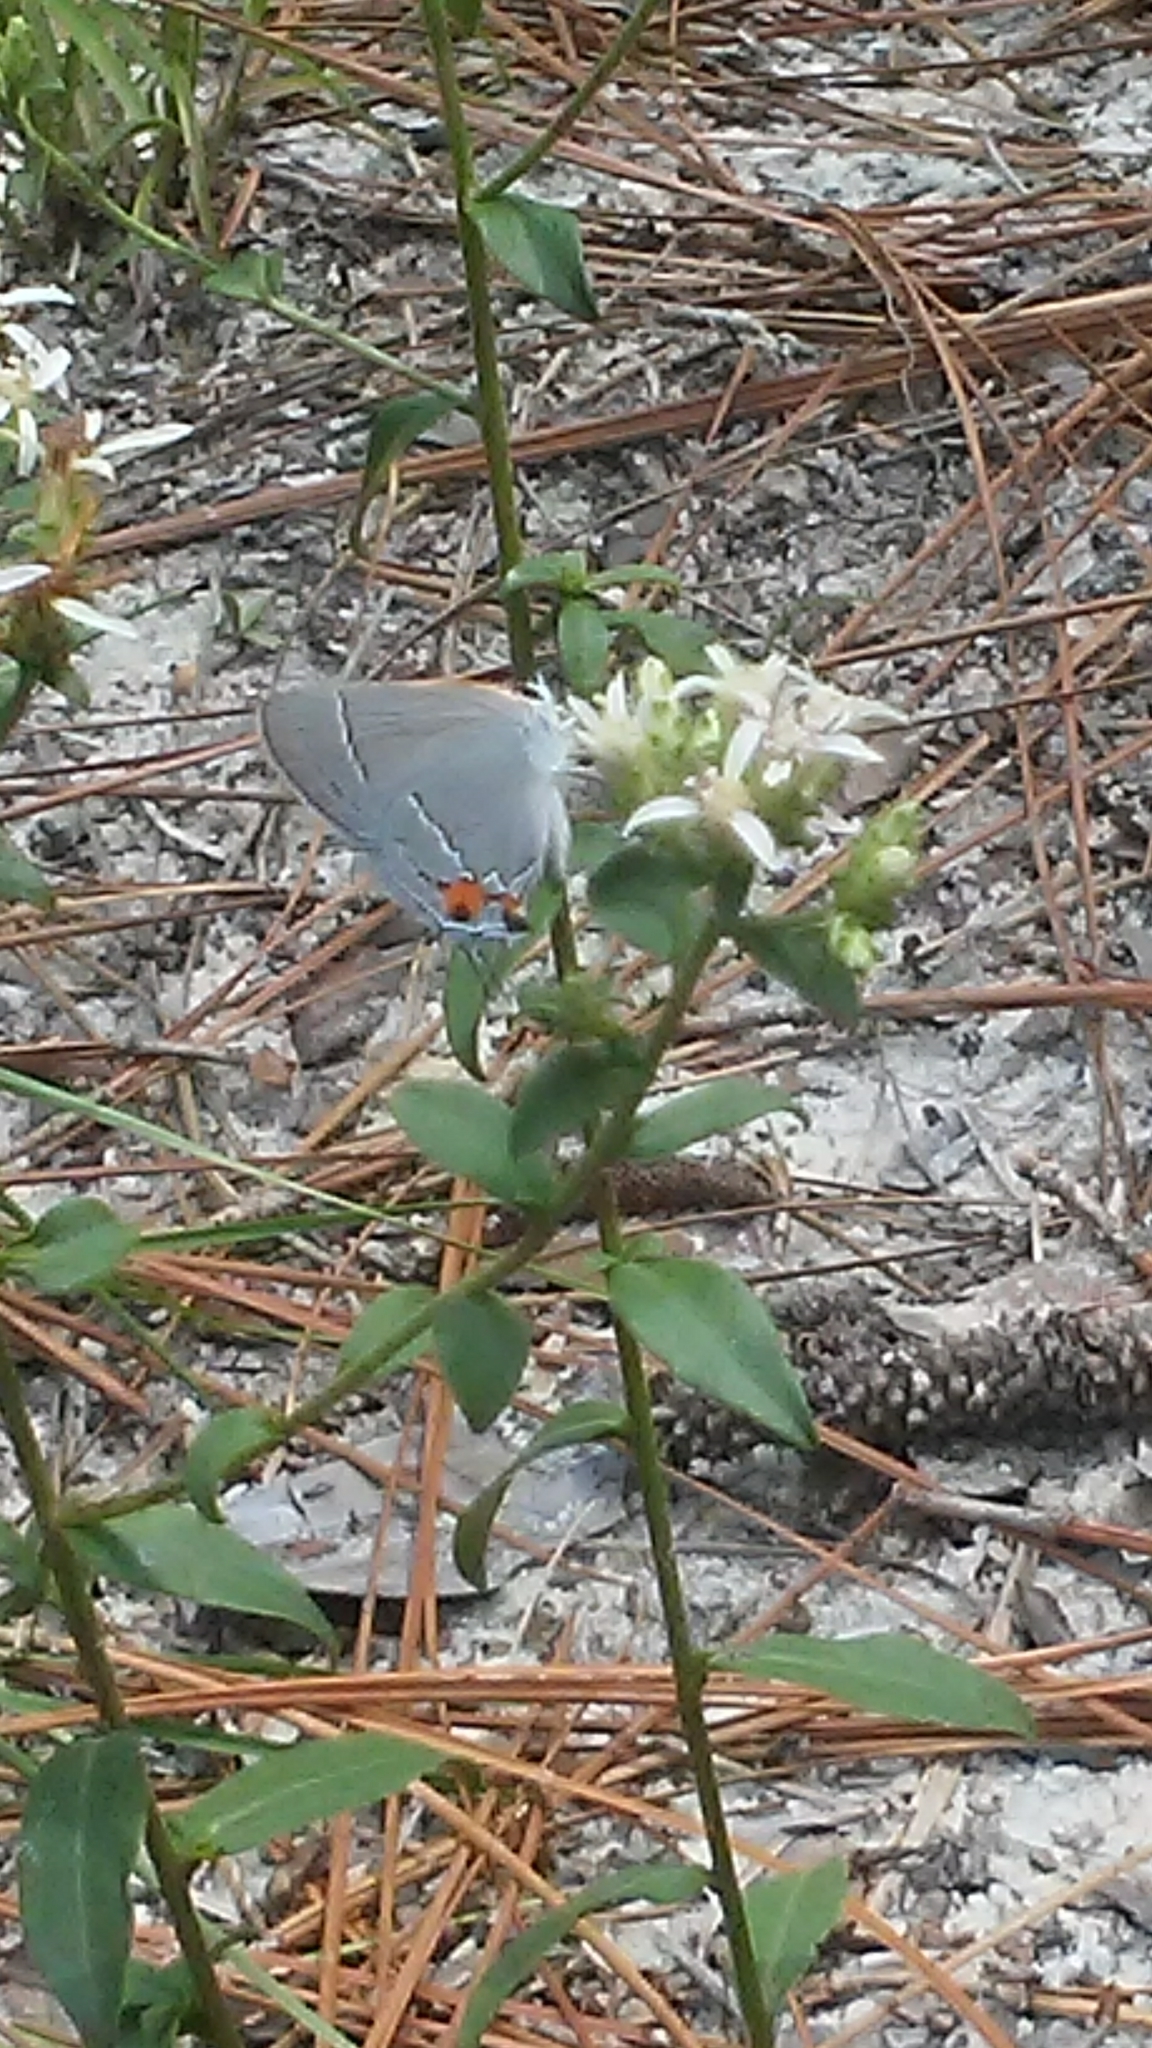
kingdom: Animalia
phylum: Arthropoda
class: Insecta
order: Lepidoptera
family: Lycaenidae
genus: Strymon
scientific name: Strymon melinus
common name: Gray hairstreak
